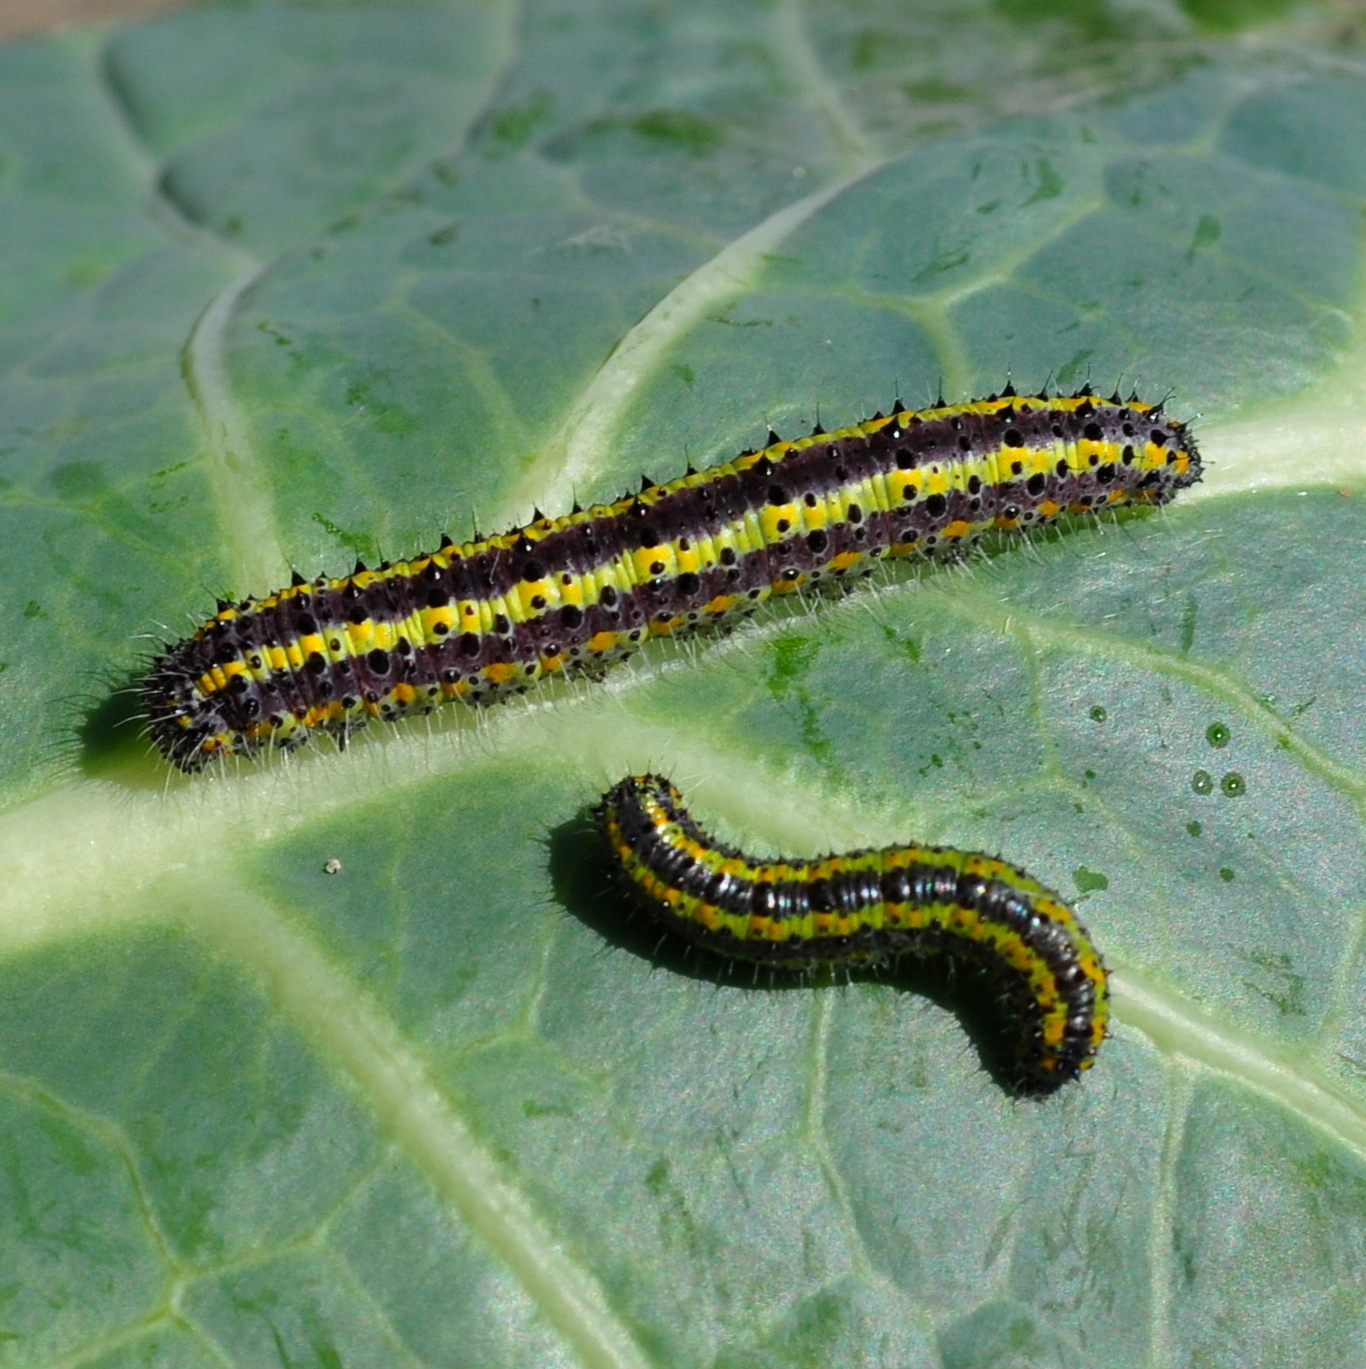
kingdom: Animalia
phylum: Arthropoda
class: Insecta
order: Lepidoptera
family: Pieridae
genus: Ascia
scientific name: Ascia monuste
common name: Great southern white
